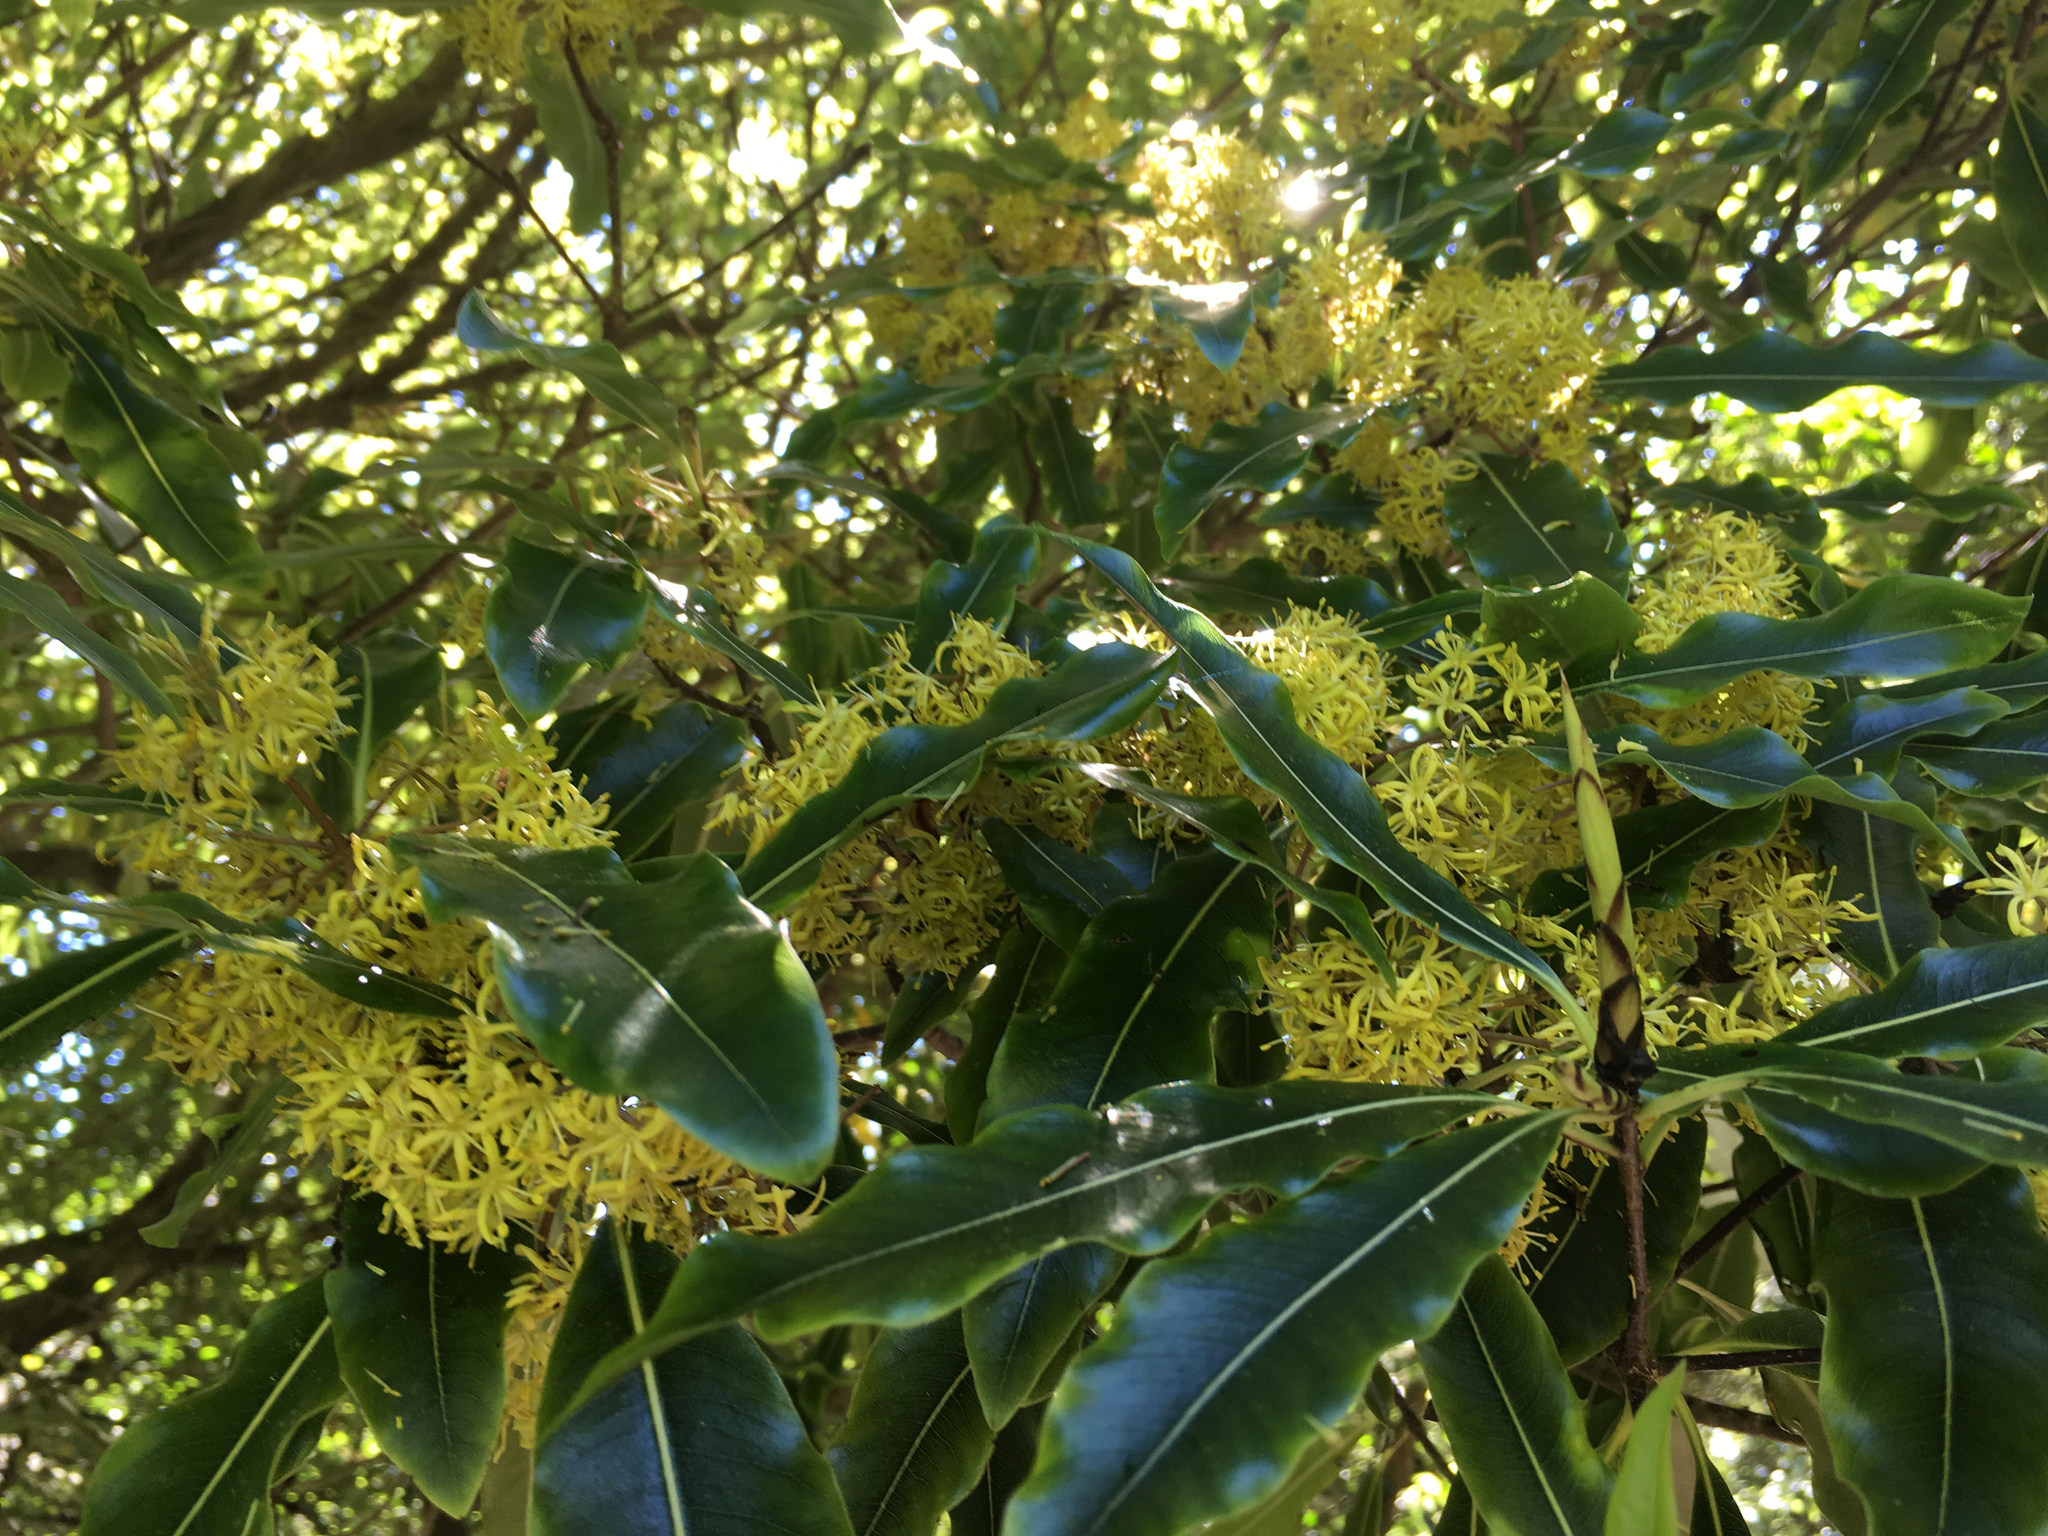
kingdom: Plantae
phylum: Tracheophyta
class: Magnoliopsida
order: Apiales
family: Pittosporaceae
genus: Pittosporum
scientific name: Pittosporum eugenioides
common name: Lemonwood
